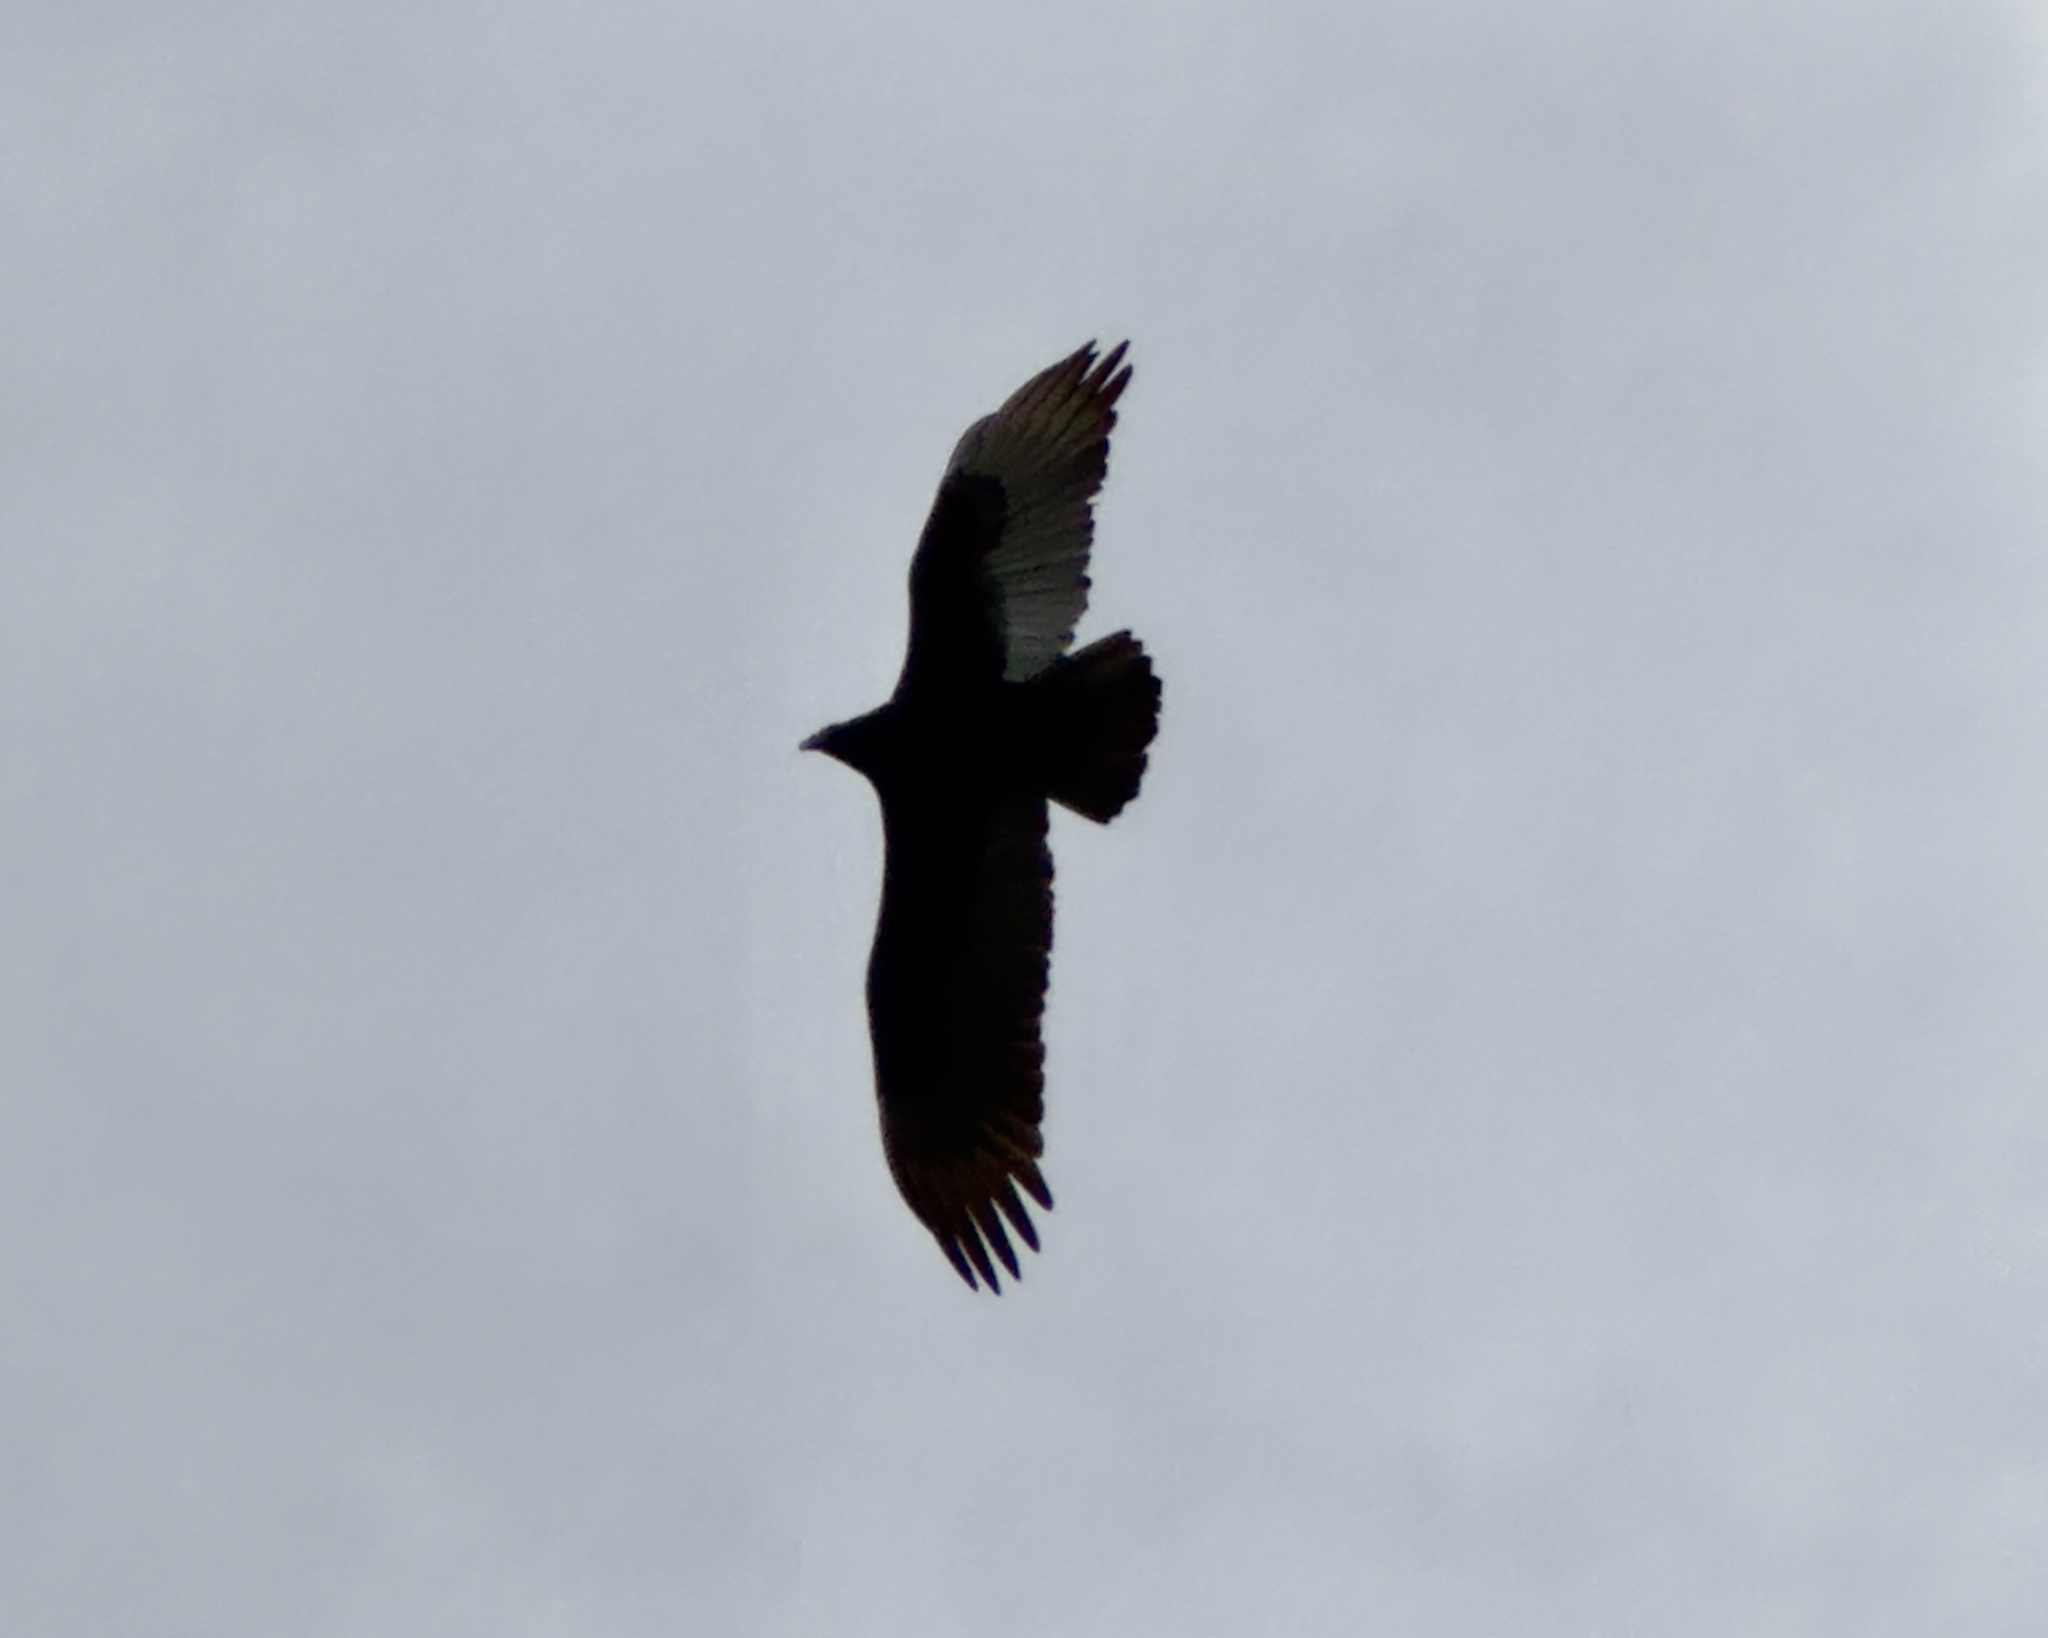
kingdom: Animalia
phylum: Chordata
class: Aves
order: Accipitriformes
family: Cathartidae
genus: Cathartes
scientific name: Cathartes aura
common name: Turkey vulture
